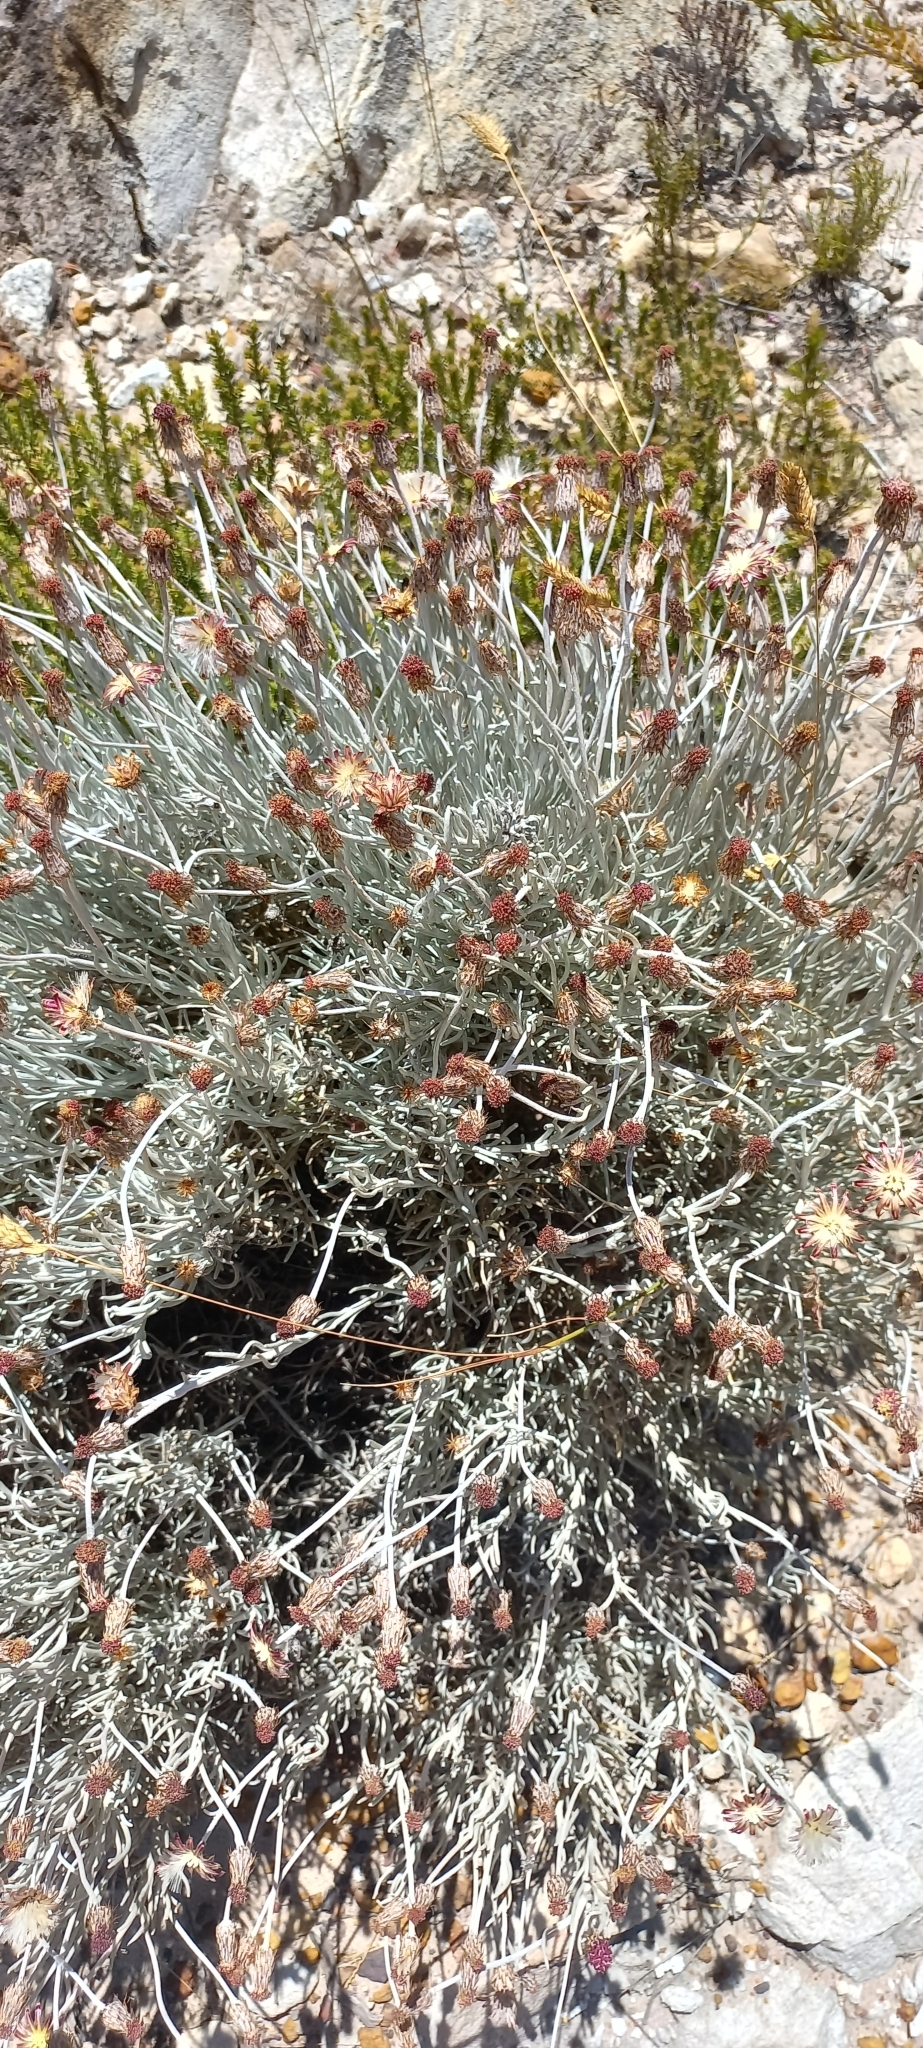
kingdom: Plantae
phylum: Tracheophyta
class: Magnoliopsida
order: Asterales
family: Asteraceae
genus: Syncarpha
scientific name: Syncarpha gnaphaloides
